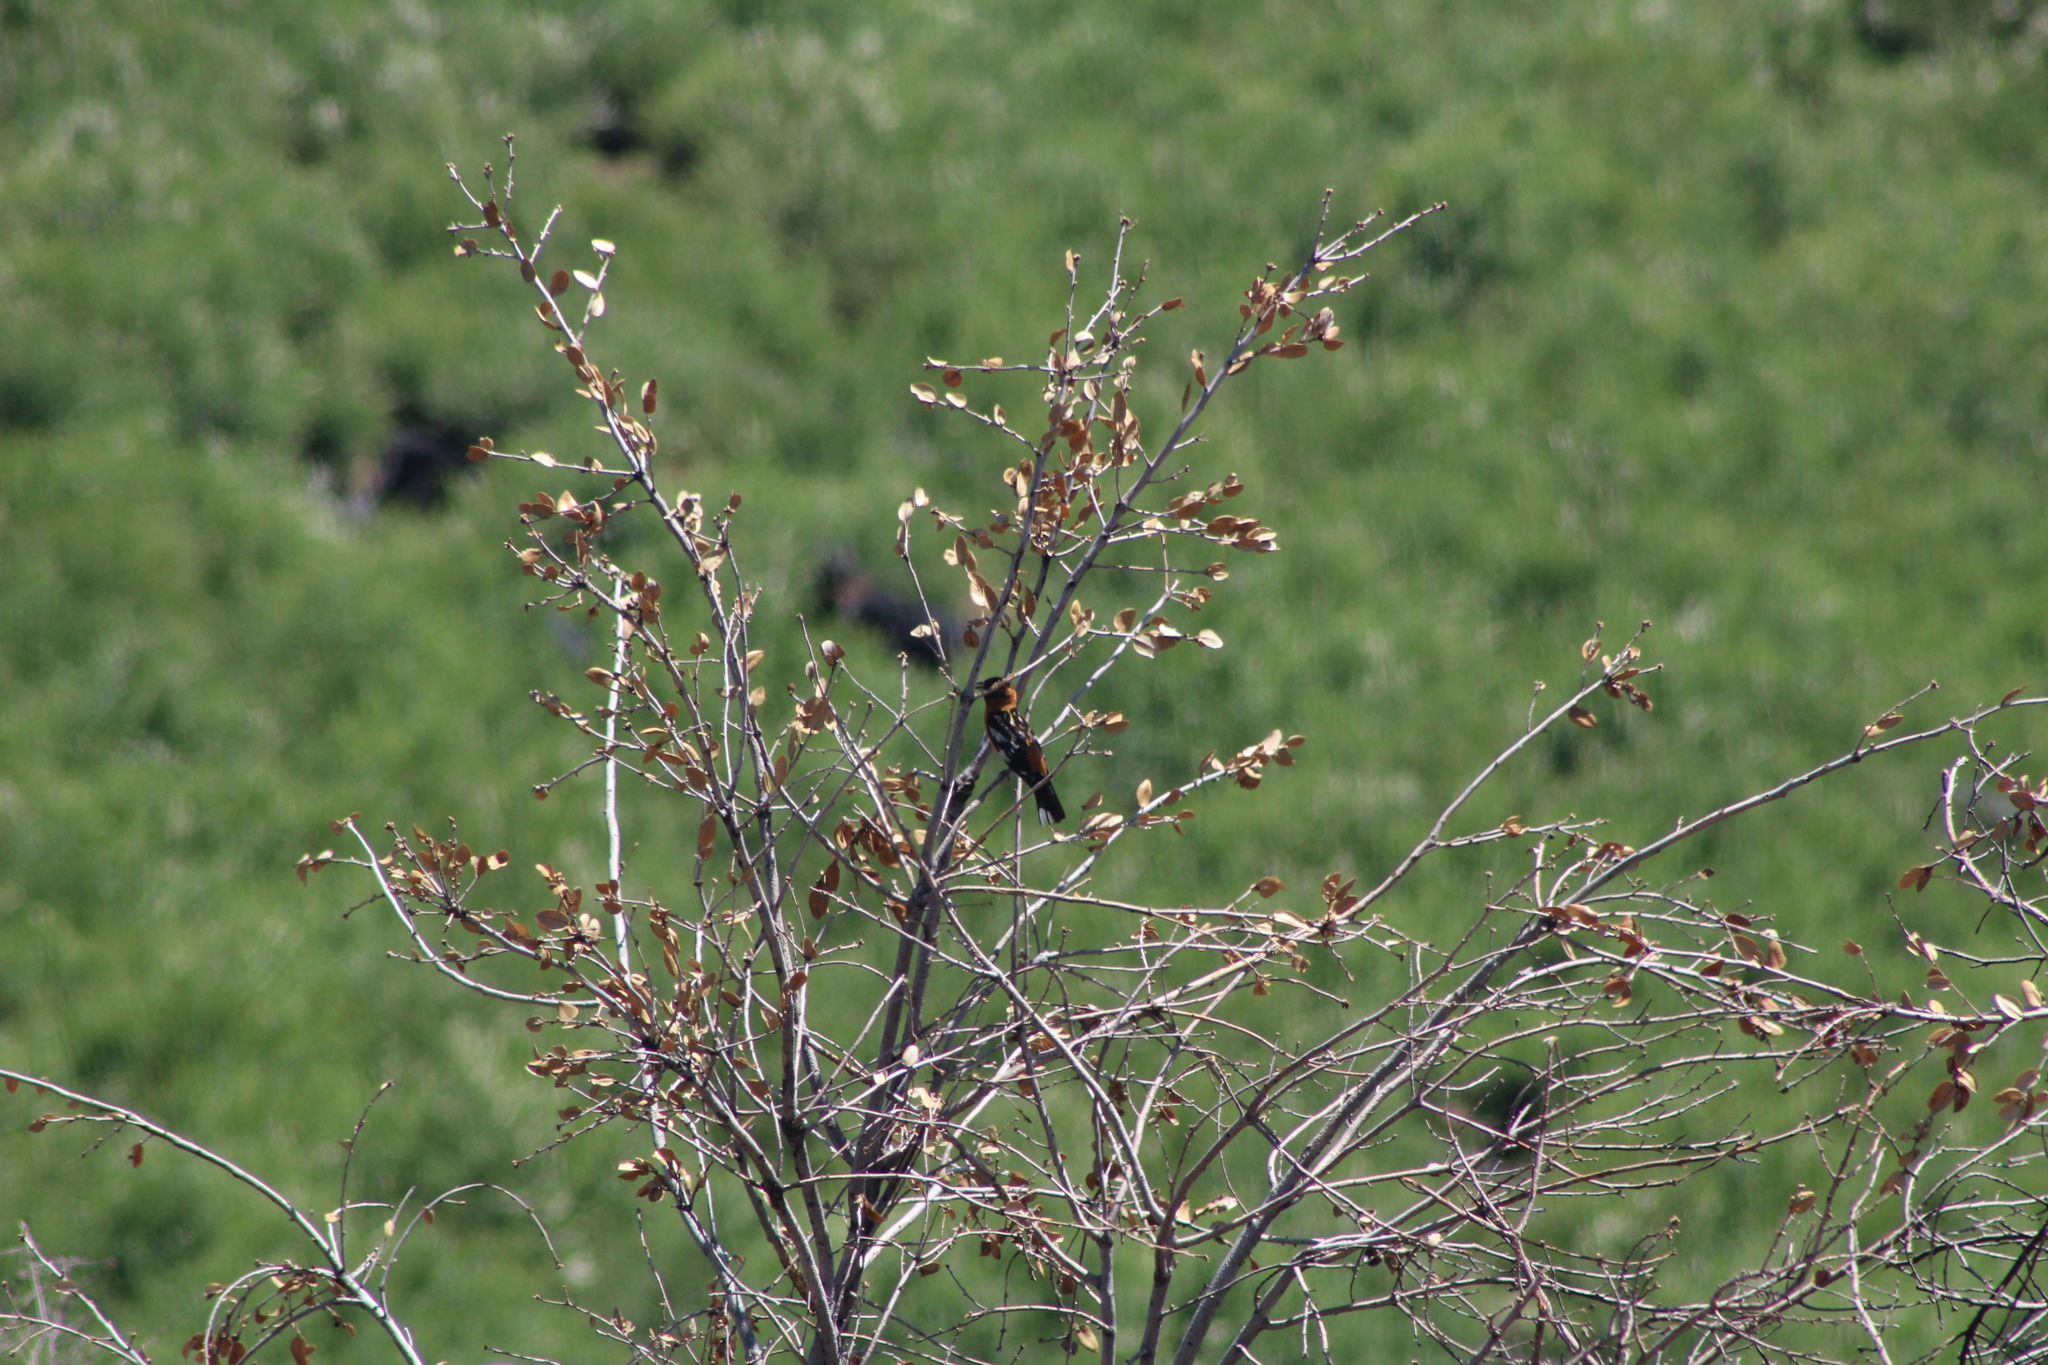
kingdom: Animalia
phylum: Chordata
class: Aves
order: Passeriformes
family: Cardinalidae
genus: Pheucticus
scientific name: Pheucticus melanocephalus
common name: Black-headed grosbeak
